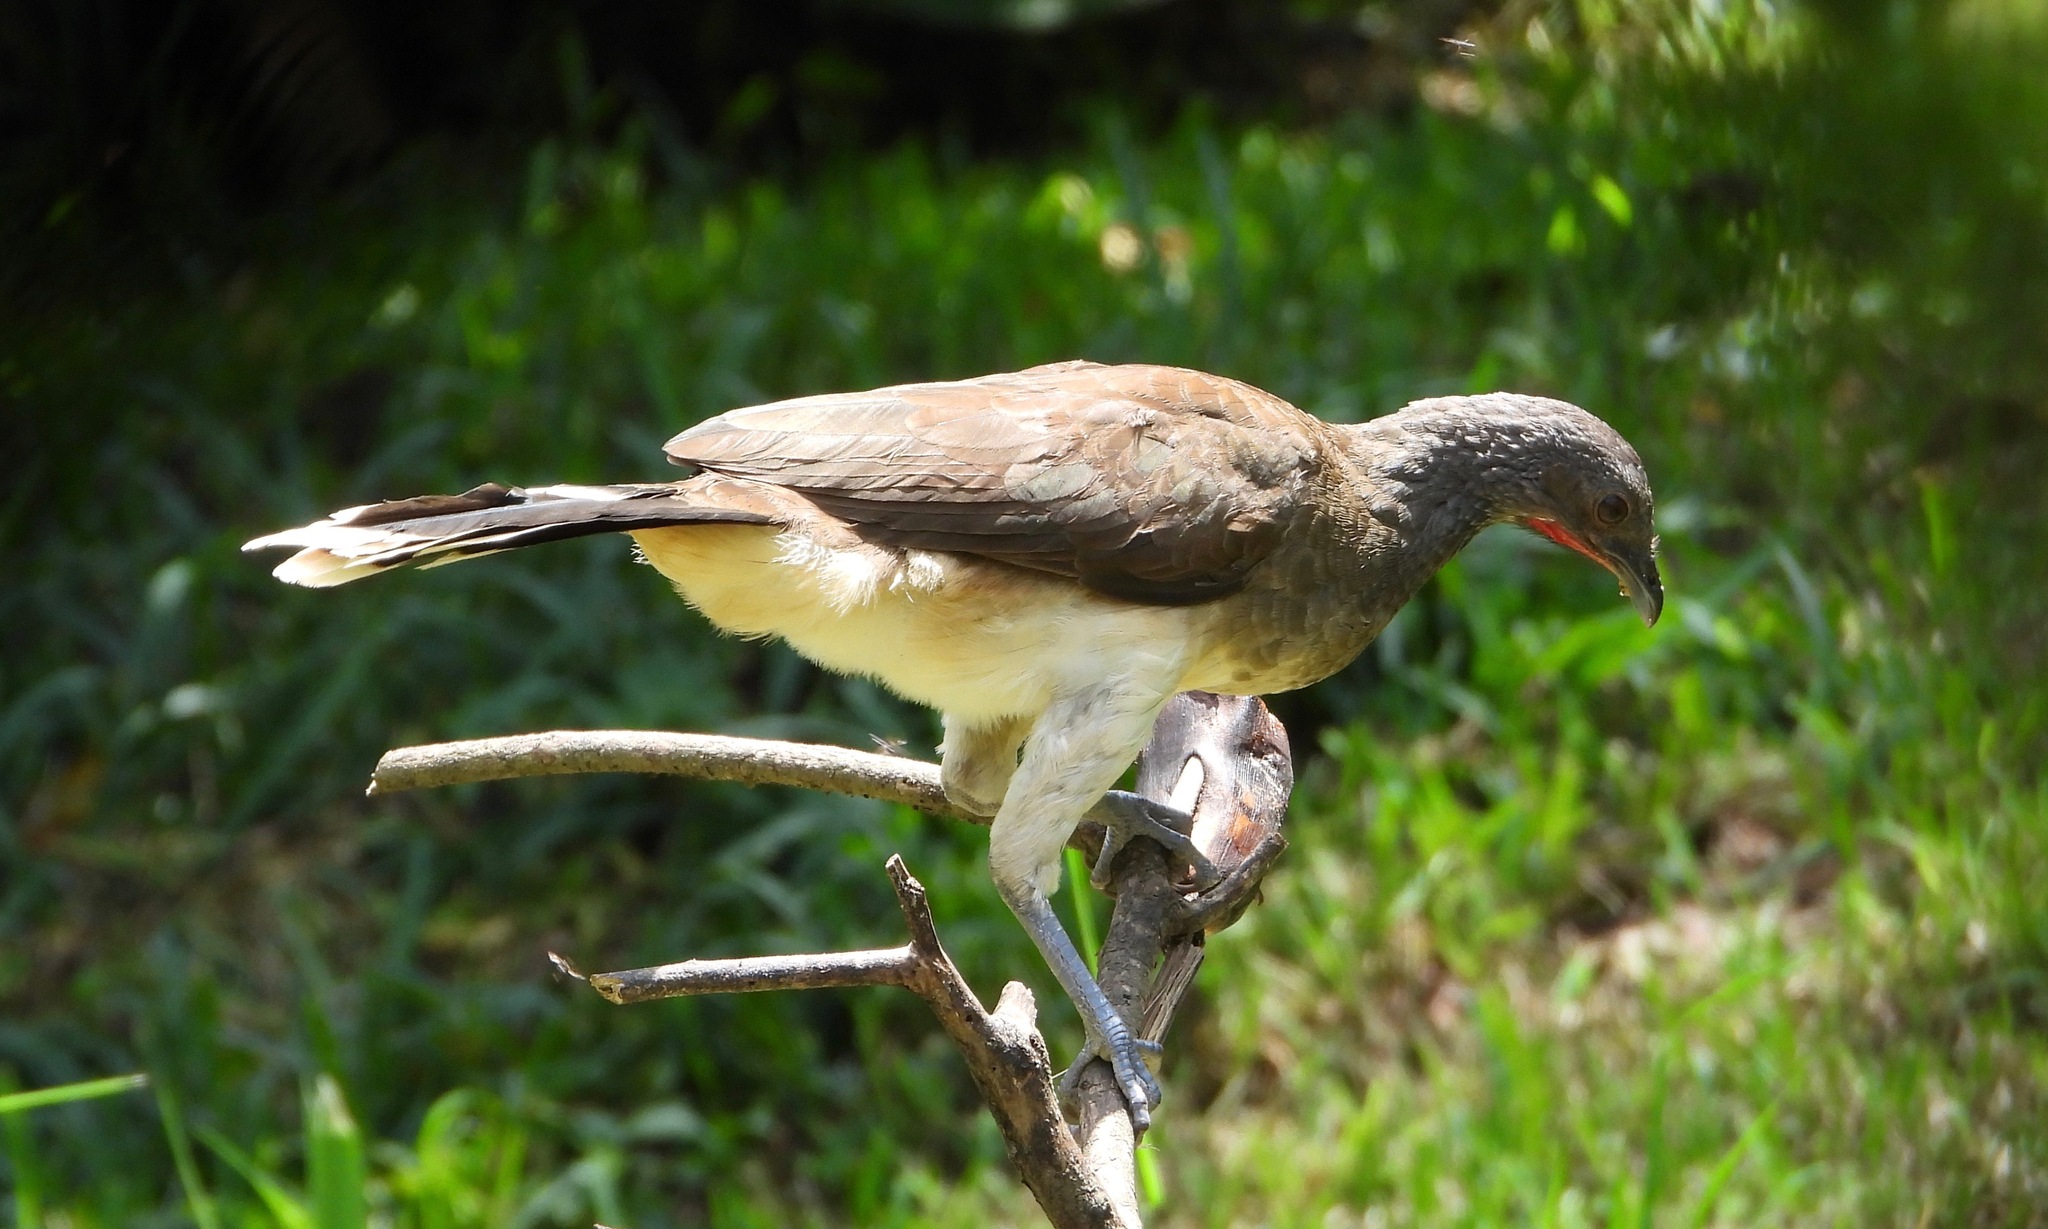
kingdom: Animalia
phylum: Chordata
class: Aves
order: Galliformes
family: Cracidae
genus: Ortalis
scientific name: Ortalis leucogastra
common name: White-bellied chachalaca
